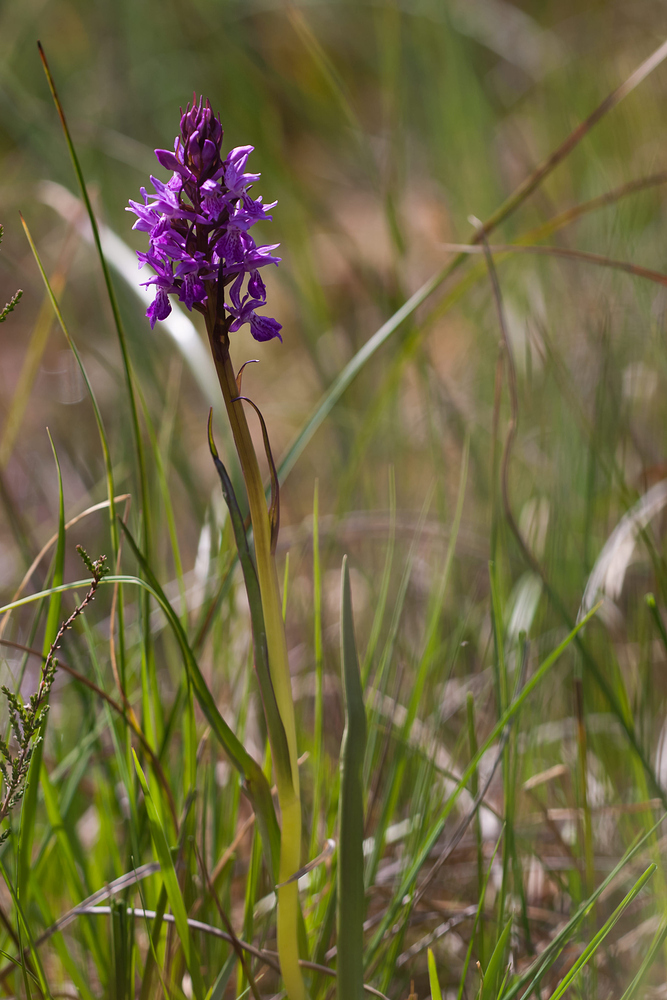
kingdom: Plantae
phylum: Tracheophyta
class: Liliopsida
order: Asparagales
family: Orchidaceae
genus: Dactylorhiza
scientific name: Dactylorhiza majalis
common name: Marsh orchid
